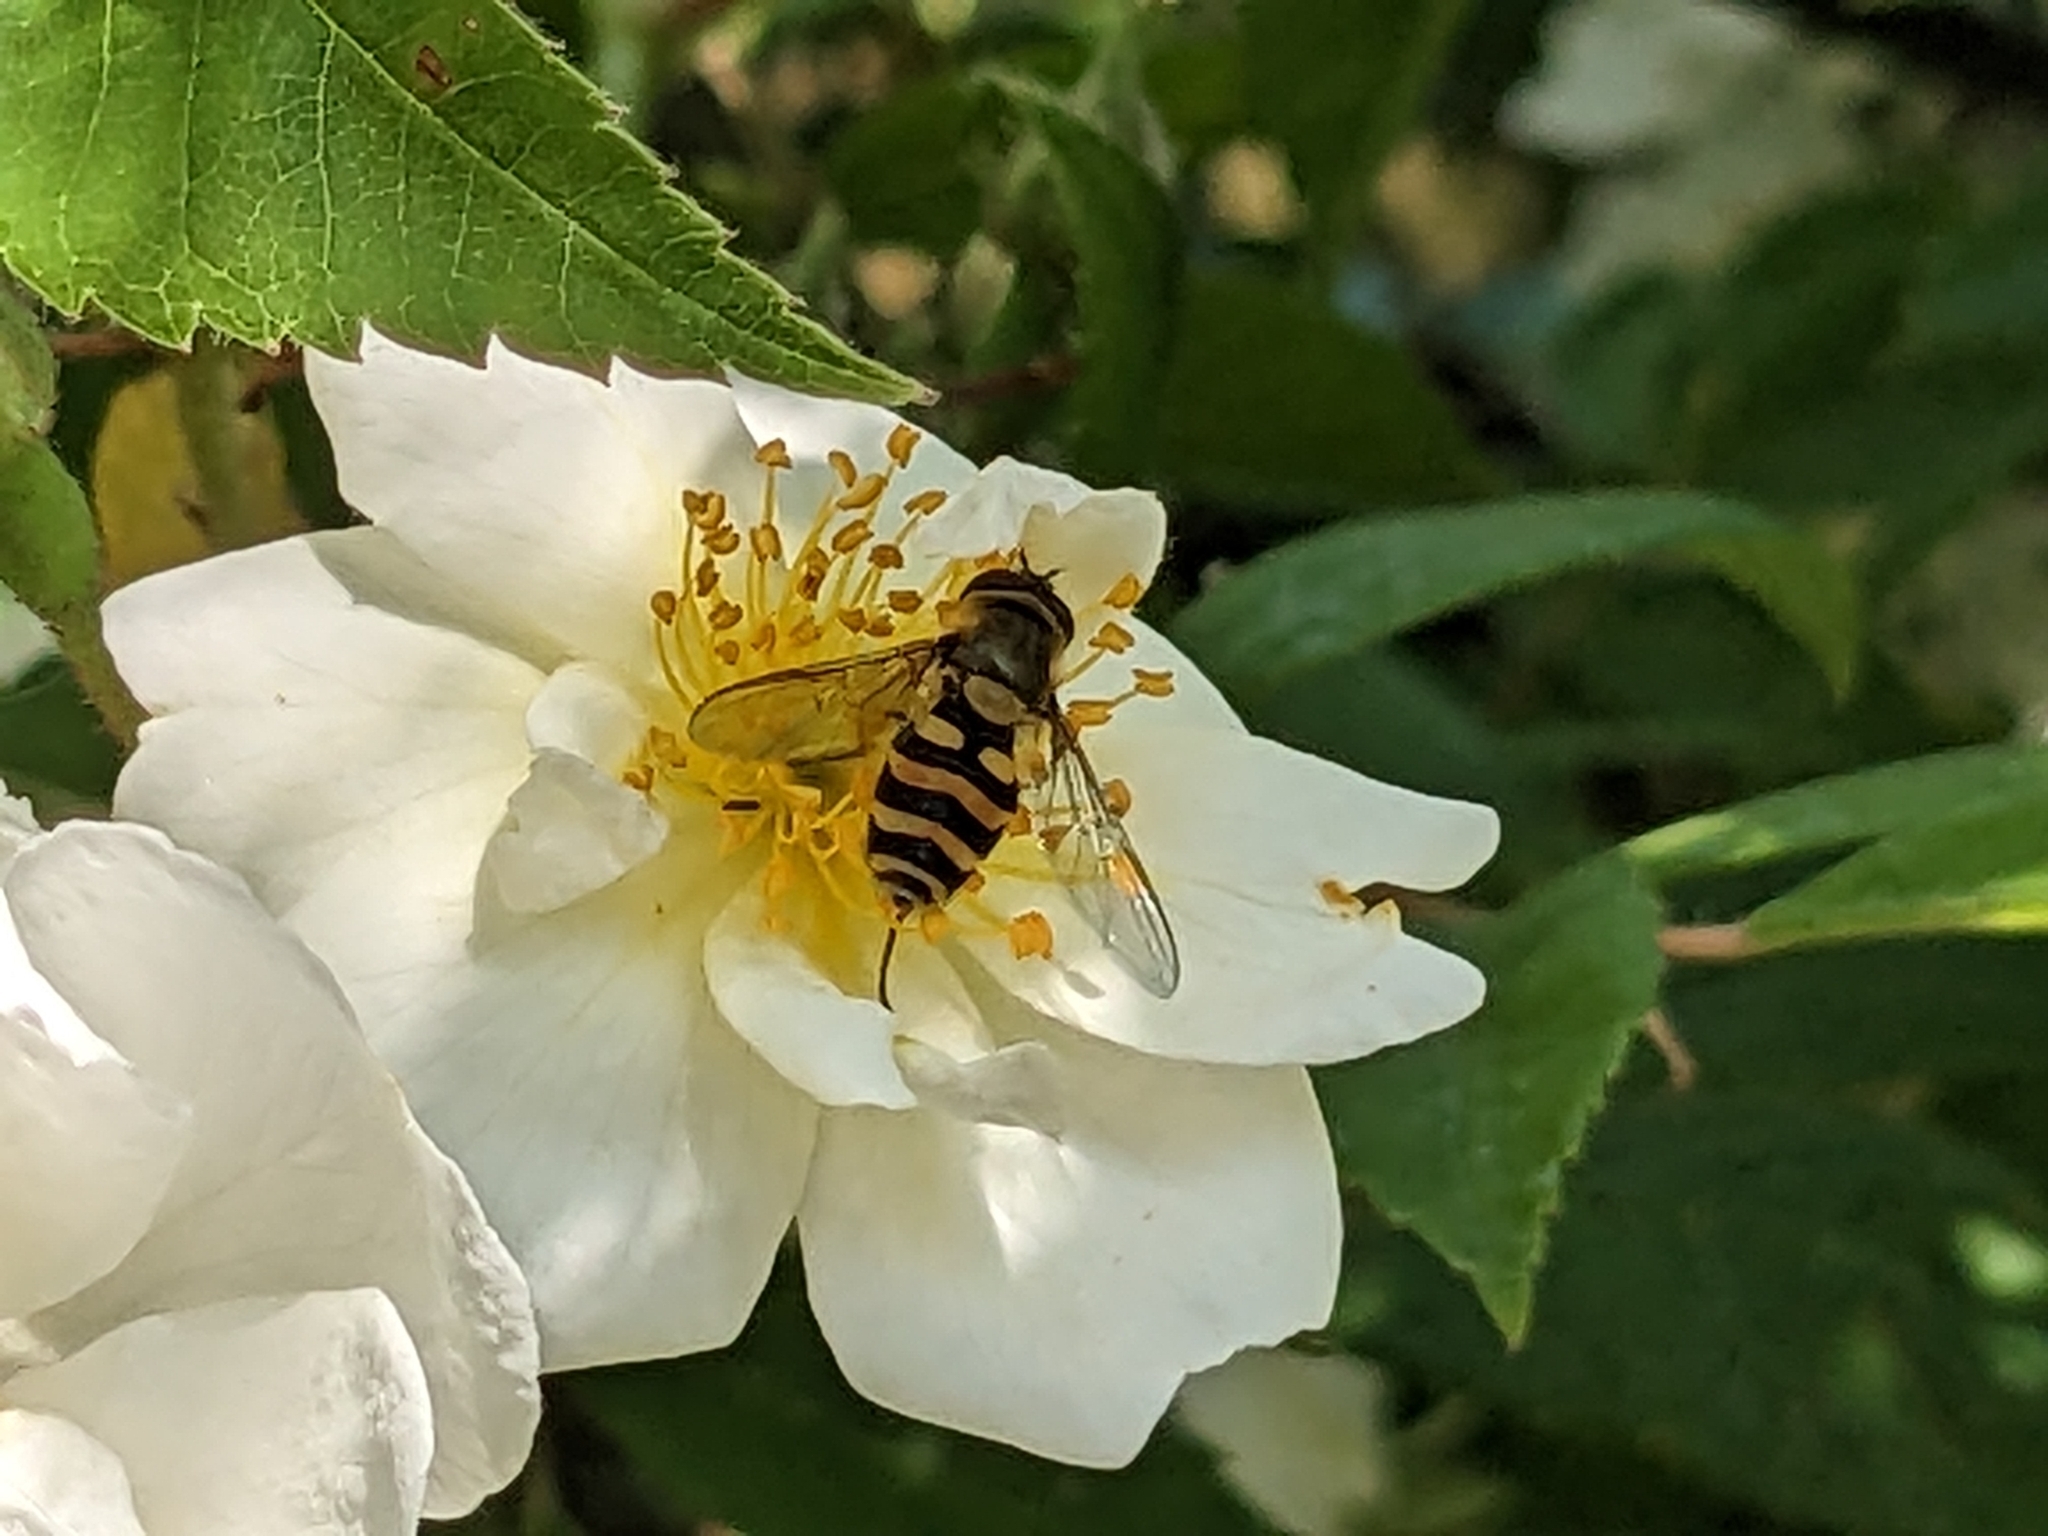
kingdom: Animalia
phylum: Arthropoda
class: Insecta
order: Diptera
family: Syrphidae
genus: Syrphus
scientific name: Syrphus
